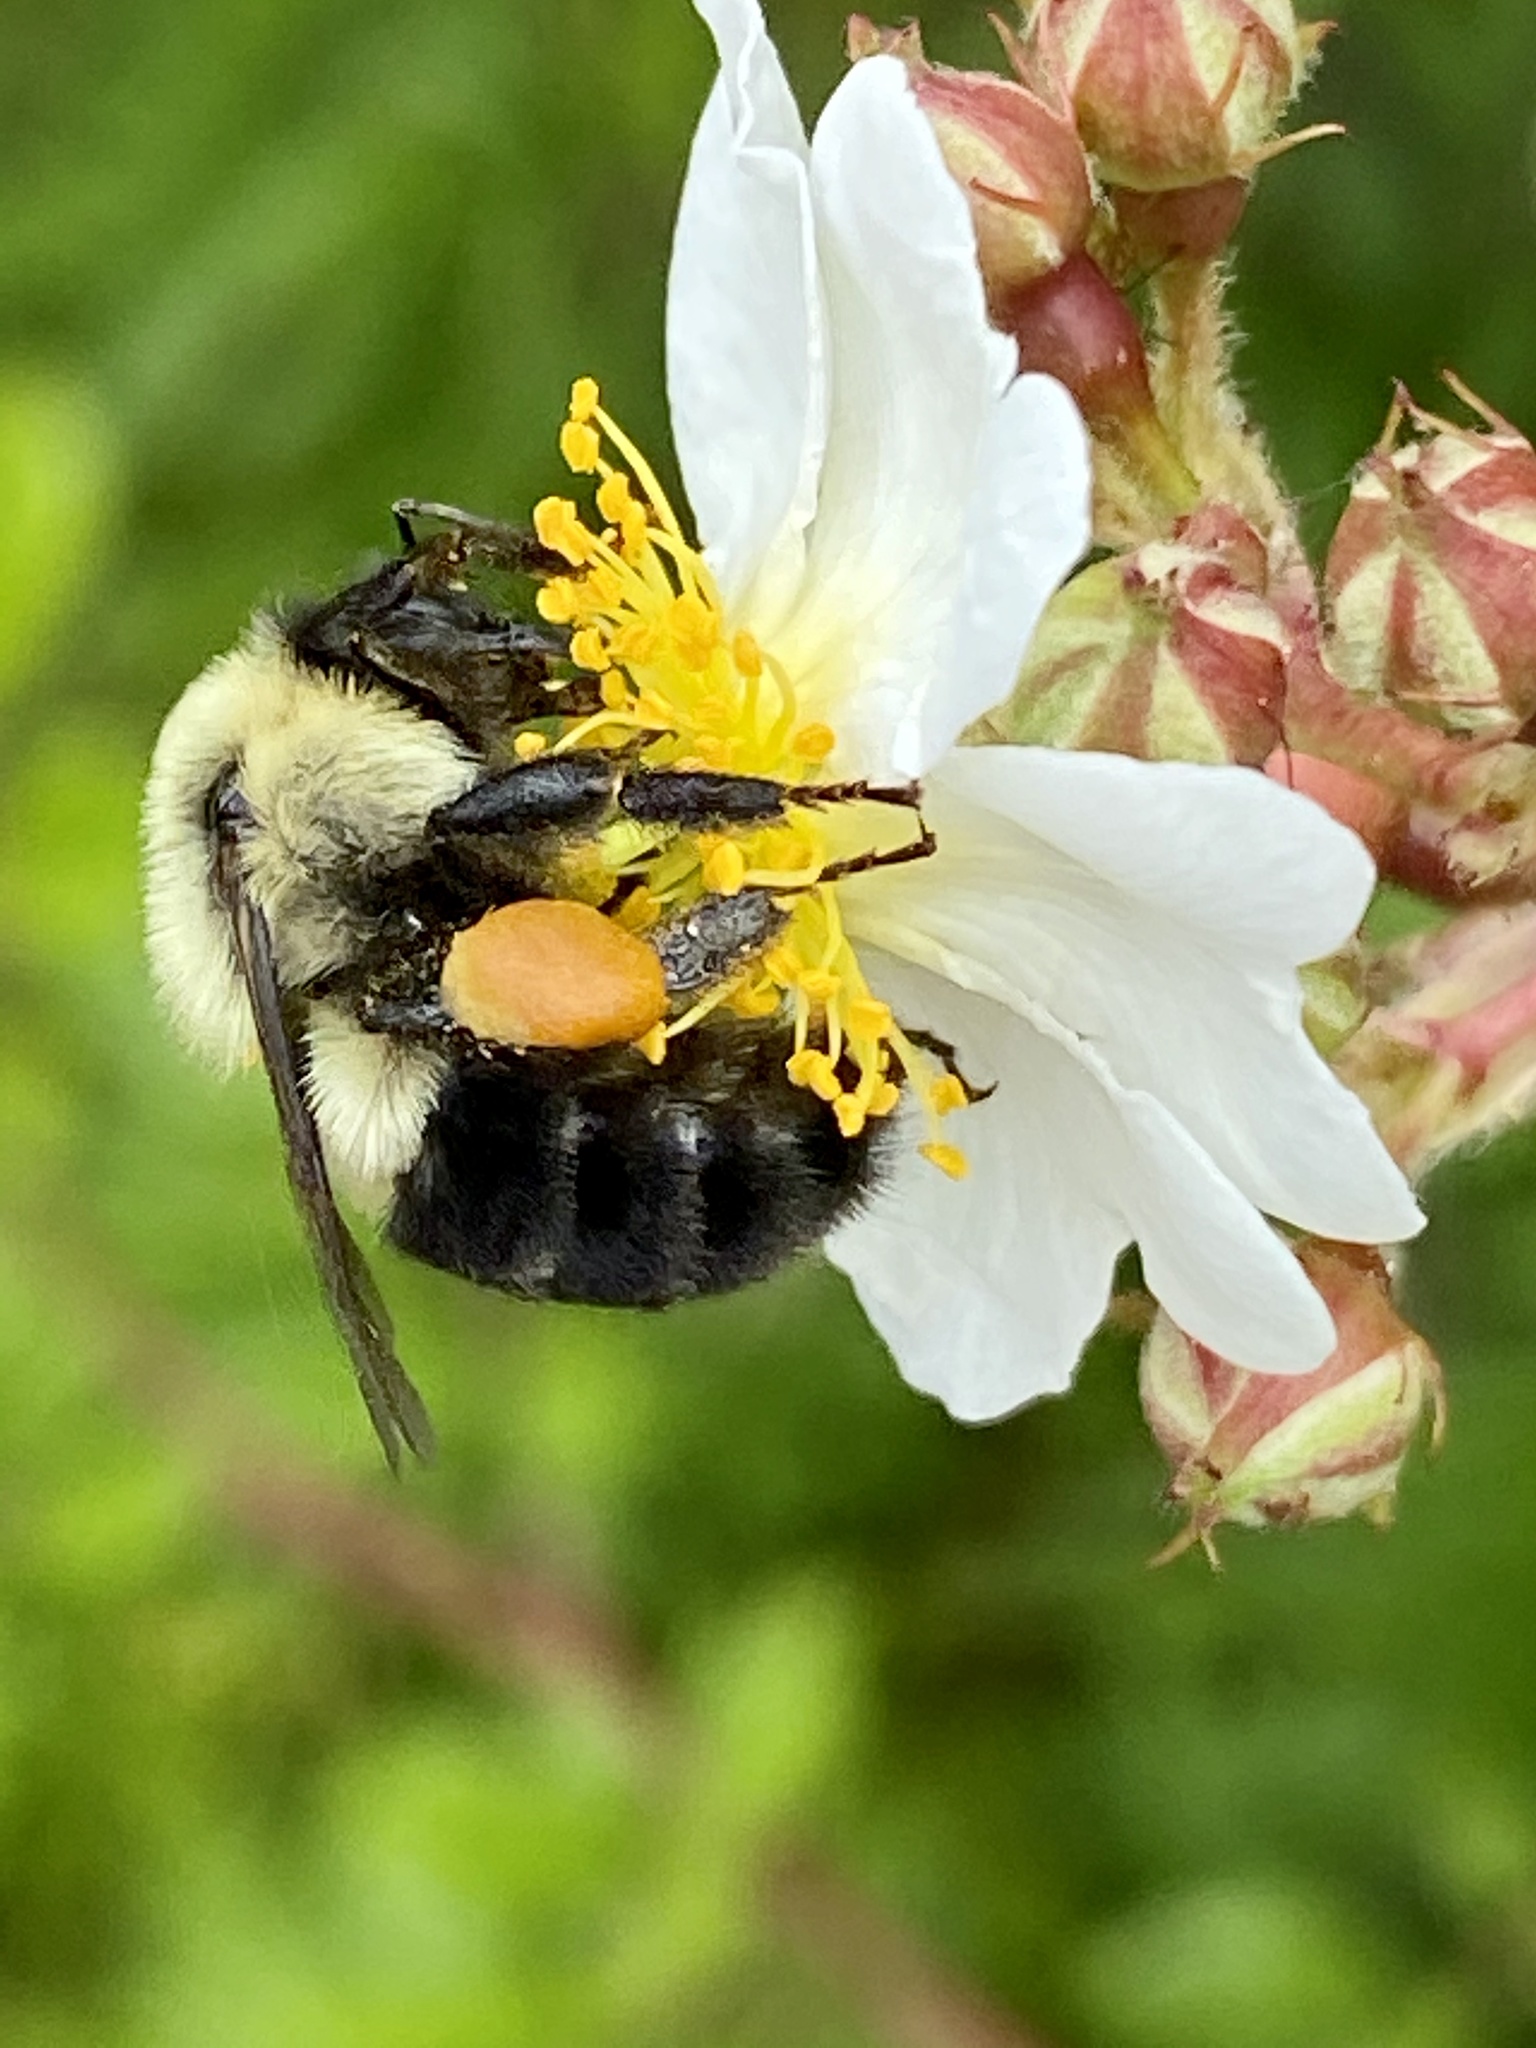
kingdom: Animalia
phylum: Arthropoda
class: Insecta
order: Hymenoptera
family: Apidae
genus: Bombus
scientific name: Bombus impatiens
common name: Common eastern bumble bee
